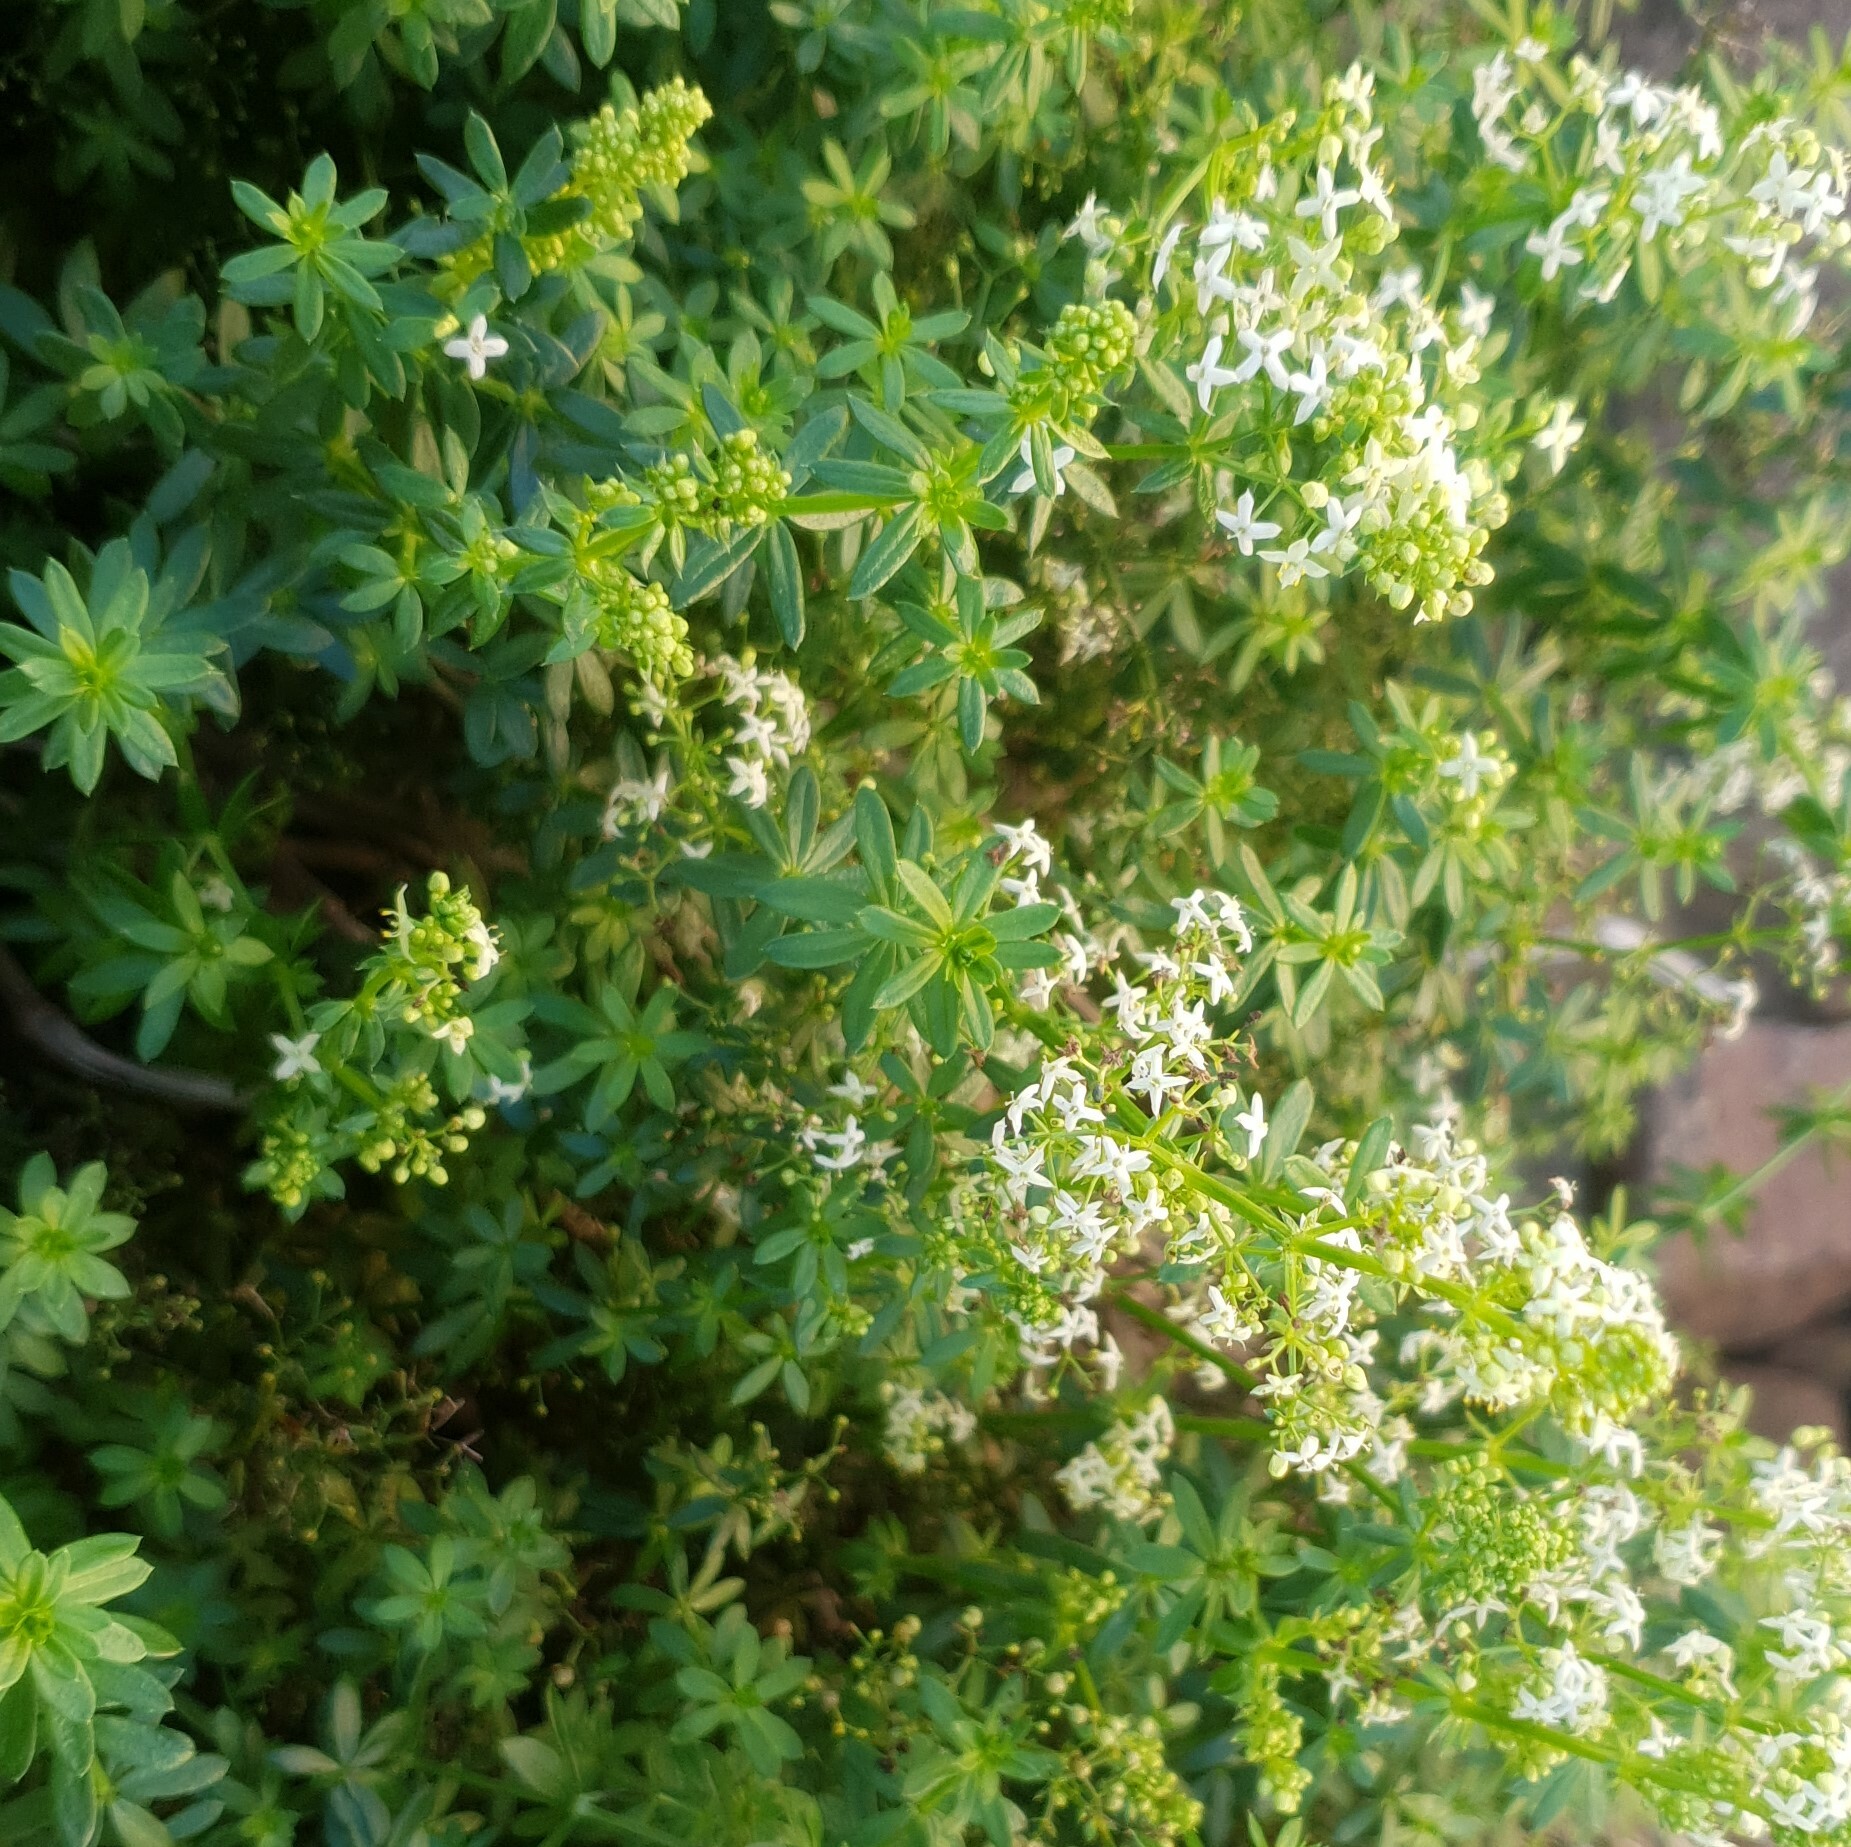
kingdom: Plantae
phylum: Tracheophyta
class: Magnoliopsida
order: Gentianales
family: Rubiaceae
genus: Galium
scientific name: Galium album
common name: White bedstraw
